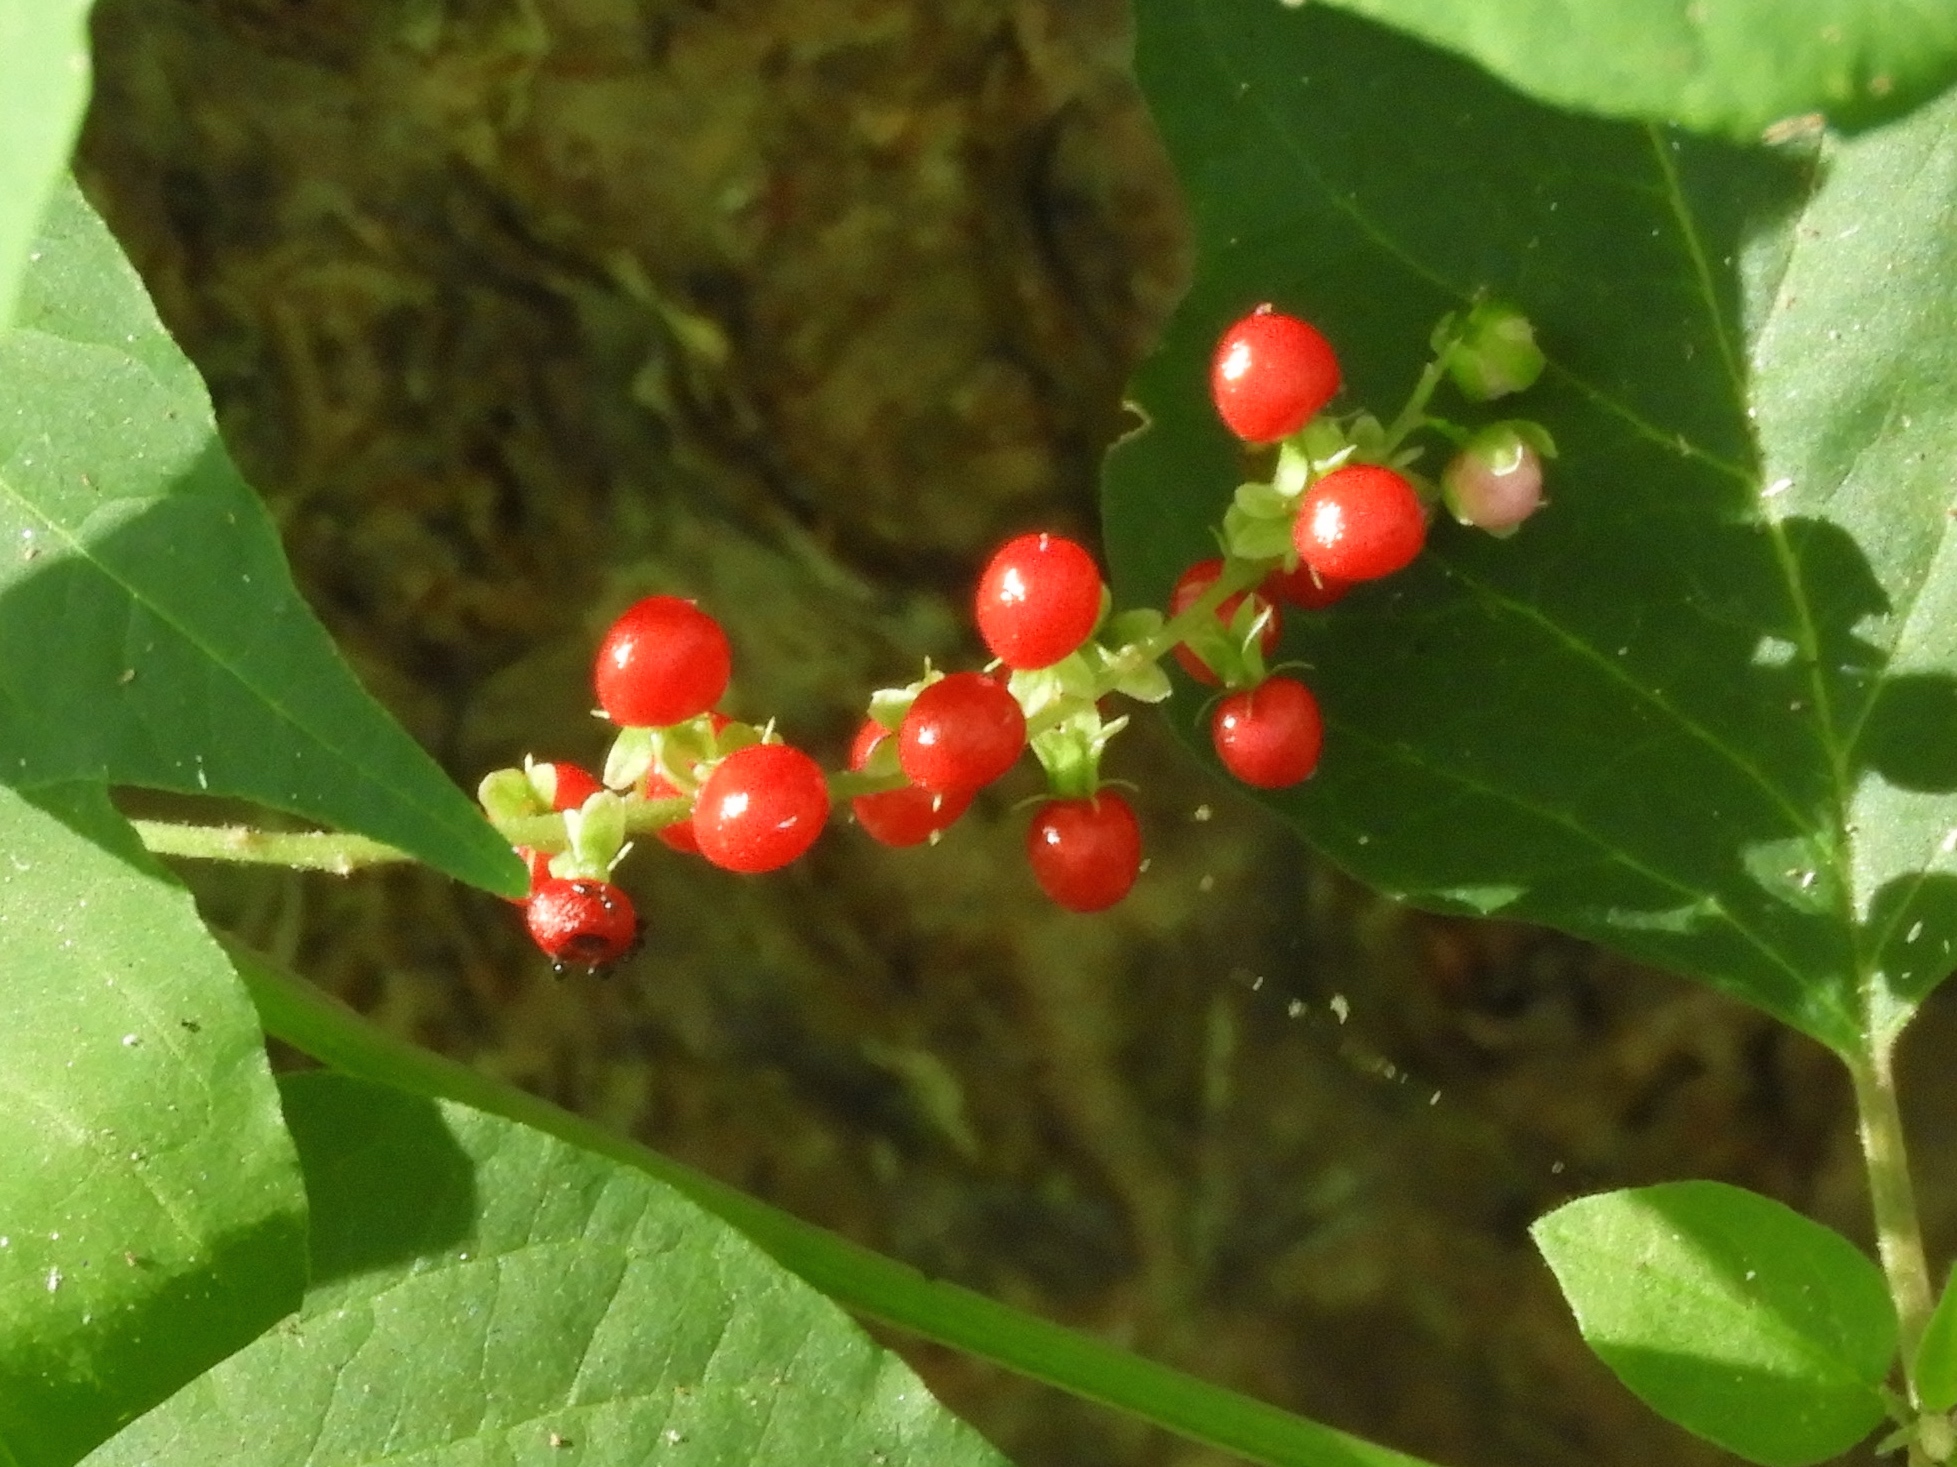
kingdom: Plantae
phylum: Tracheophyta
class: Magnoliopsida
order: Caryophyllales
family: Phytolaccaceae
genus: Rivina
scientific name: Rivina humilis
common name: Rougeplant
